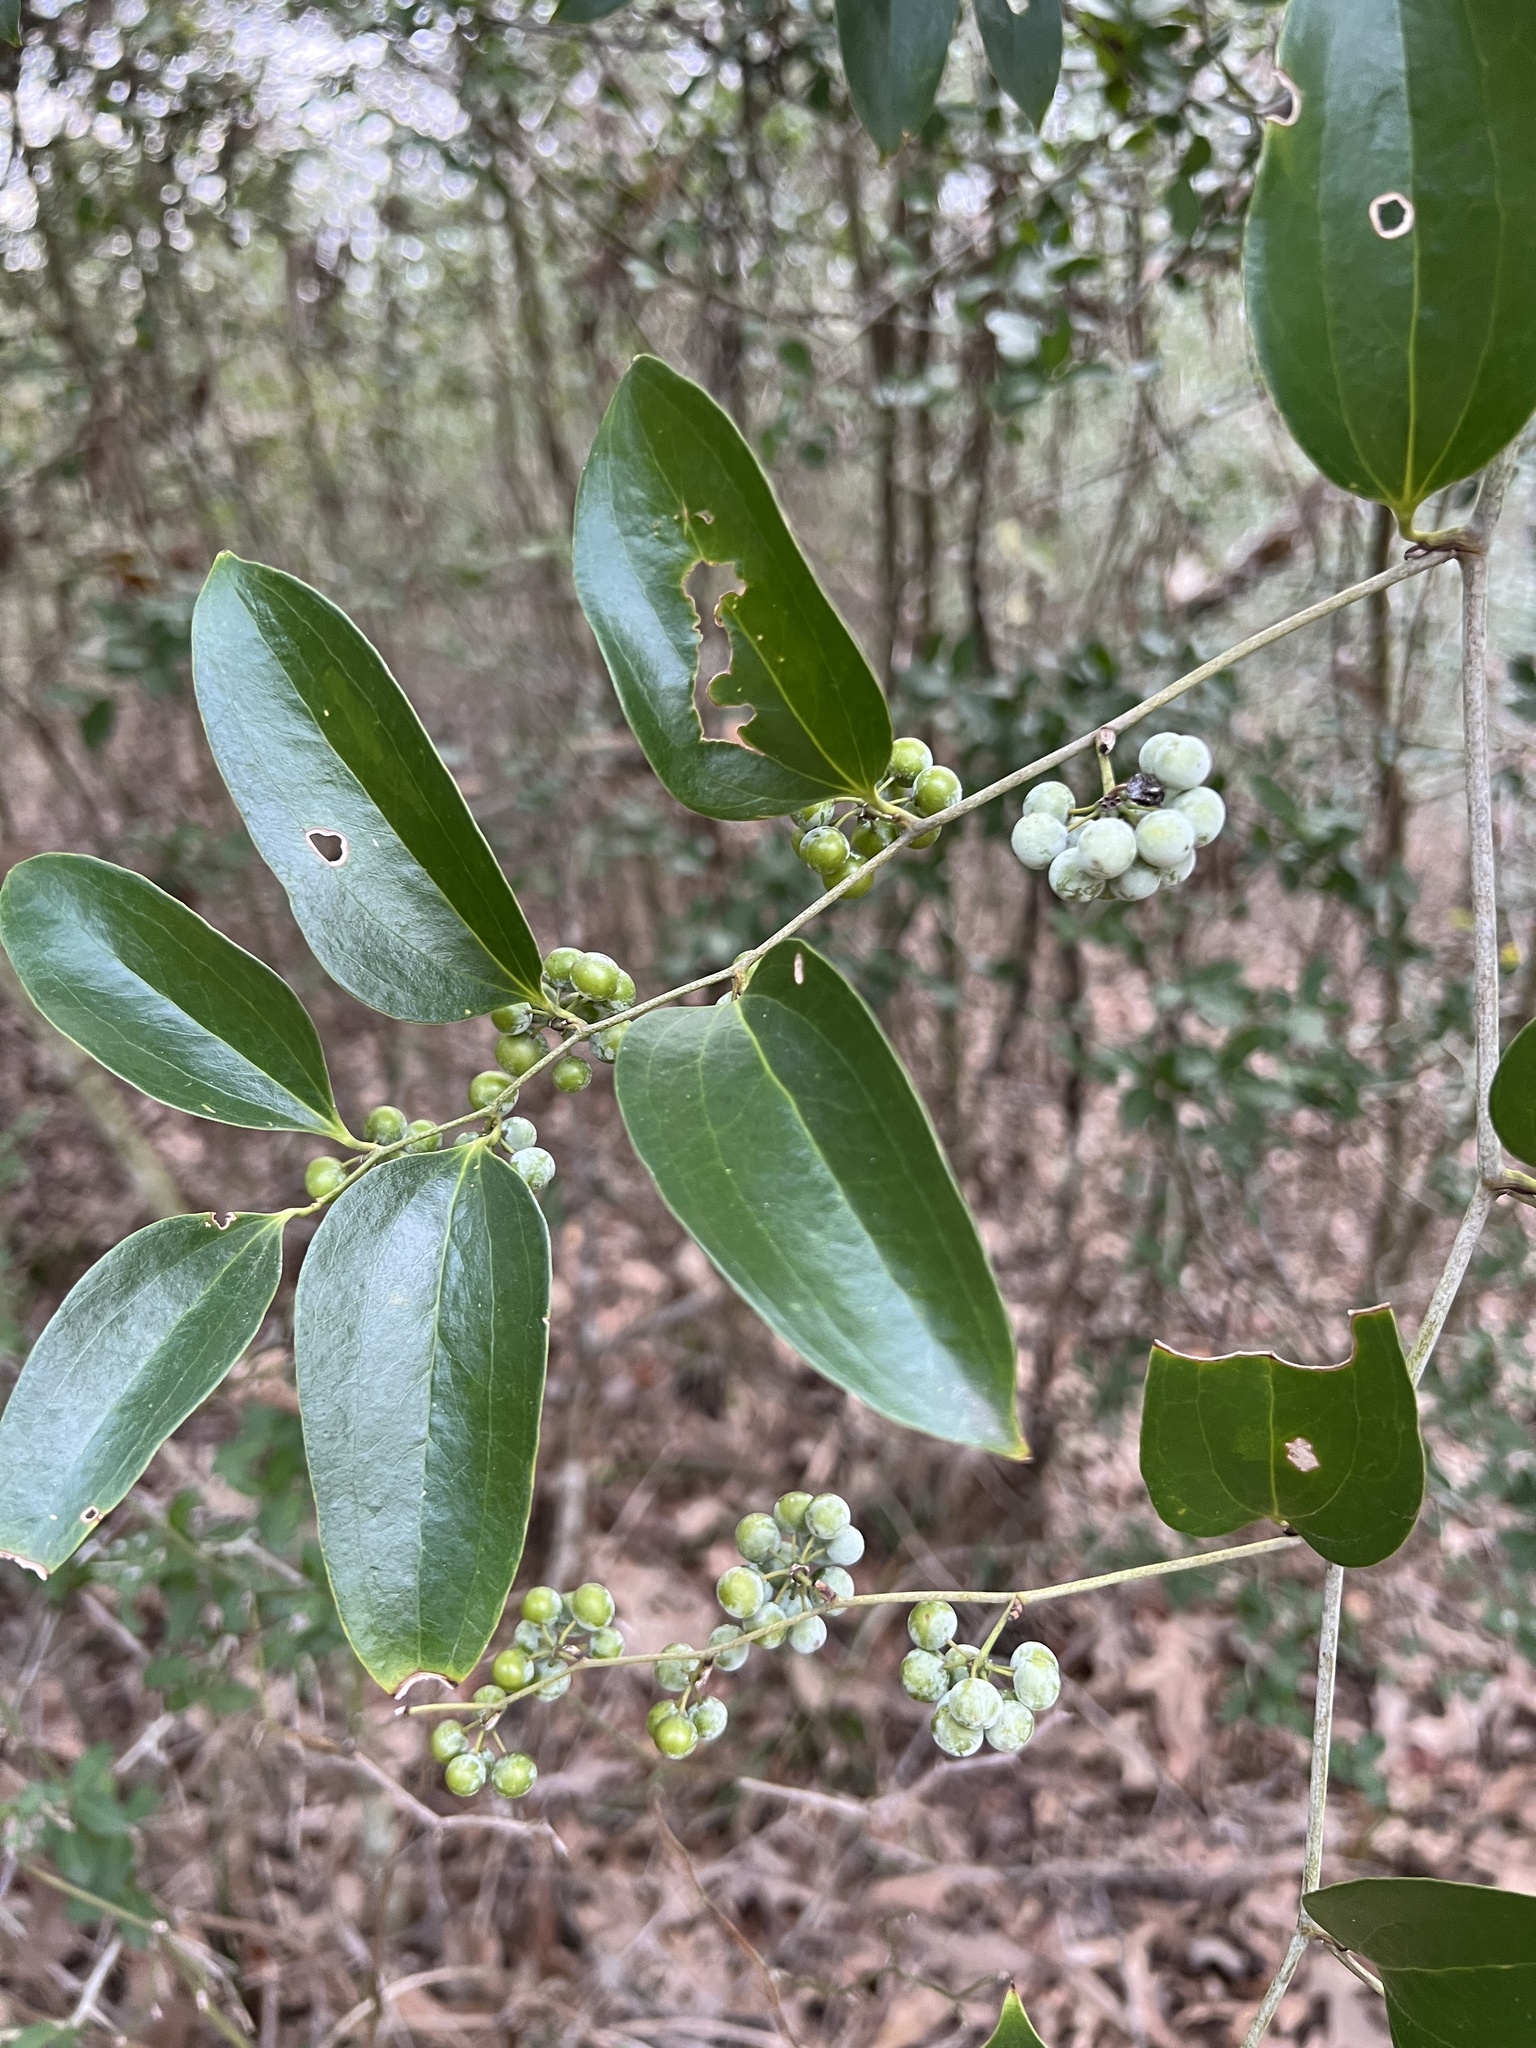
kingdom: Plantae
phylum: Tracheophyta
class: Liliopsida
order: Liliales
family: Smilacaceae
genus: Smilax
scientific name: Smilax maritima
